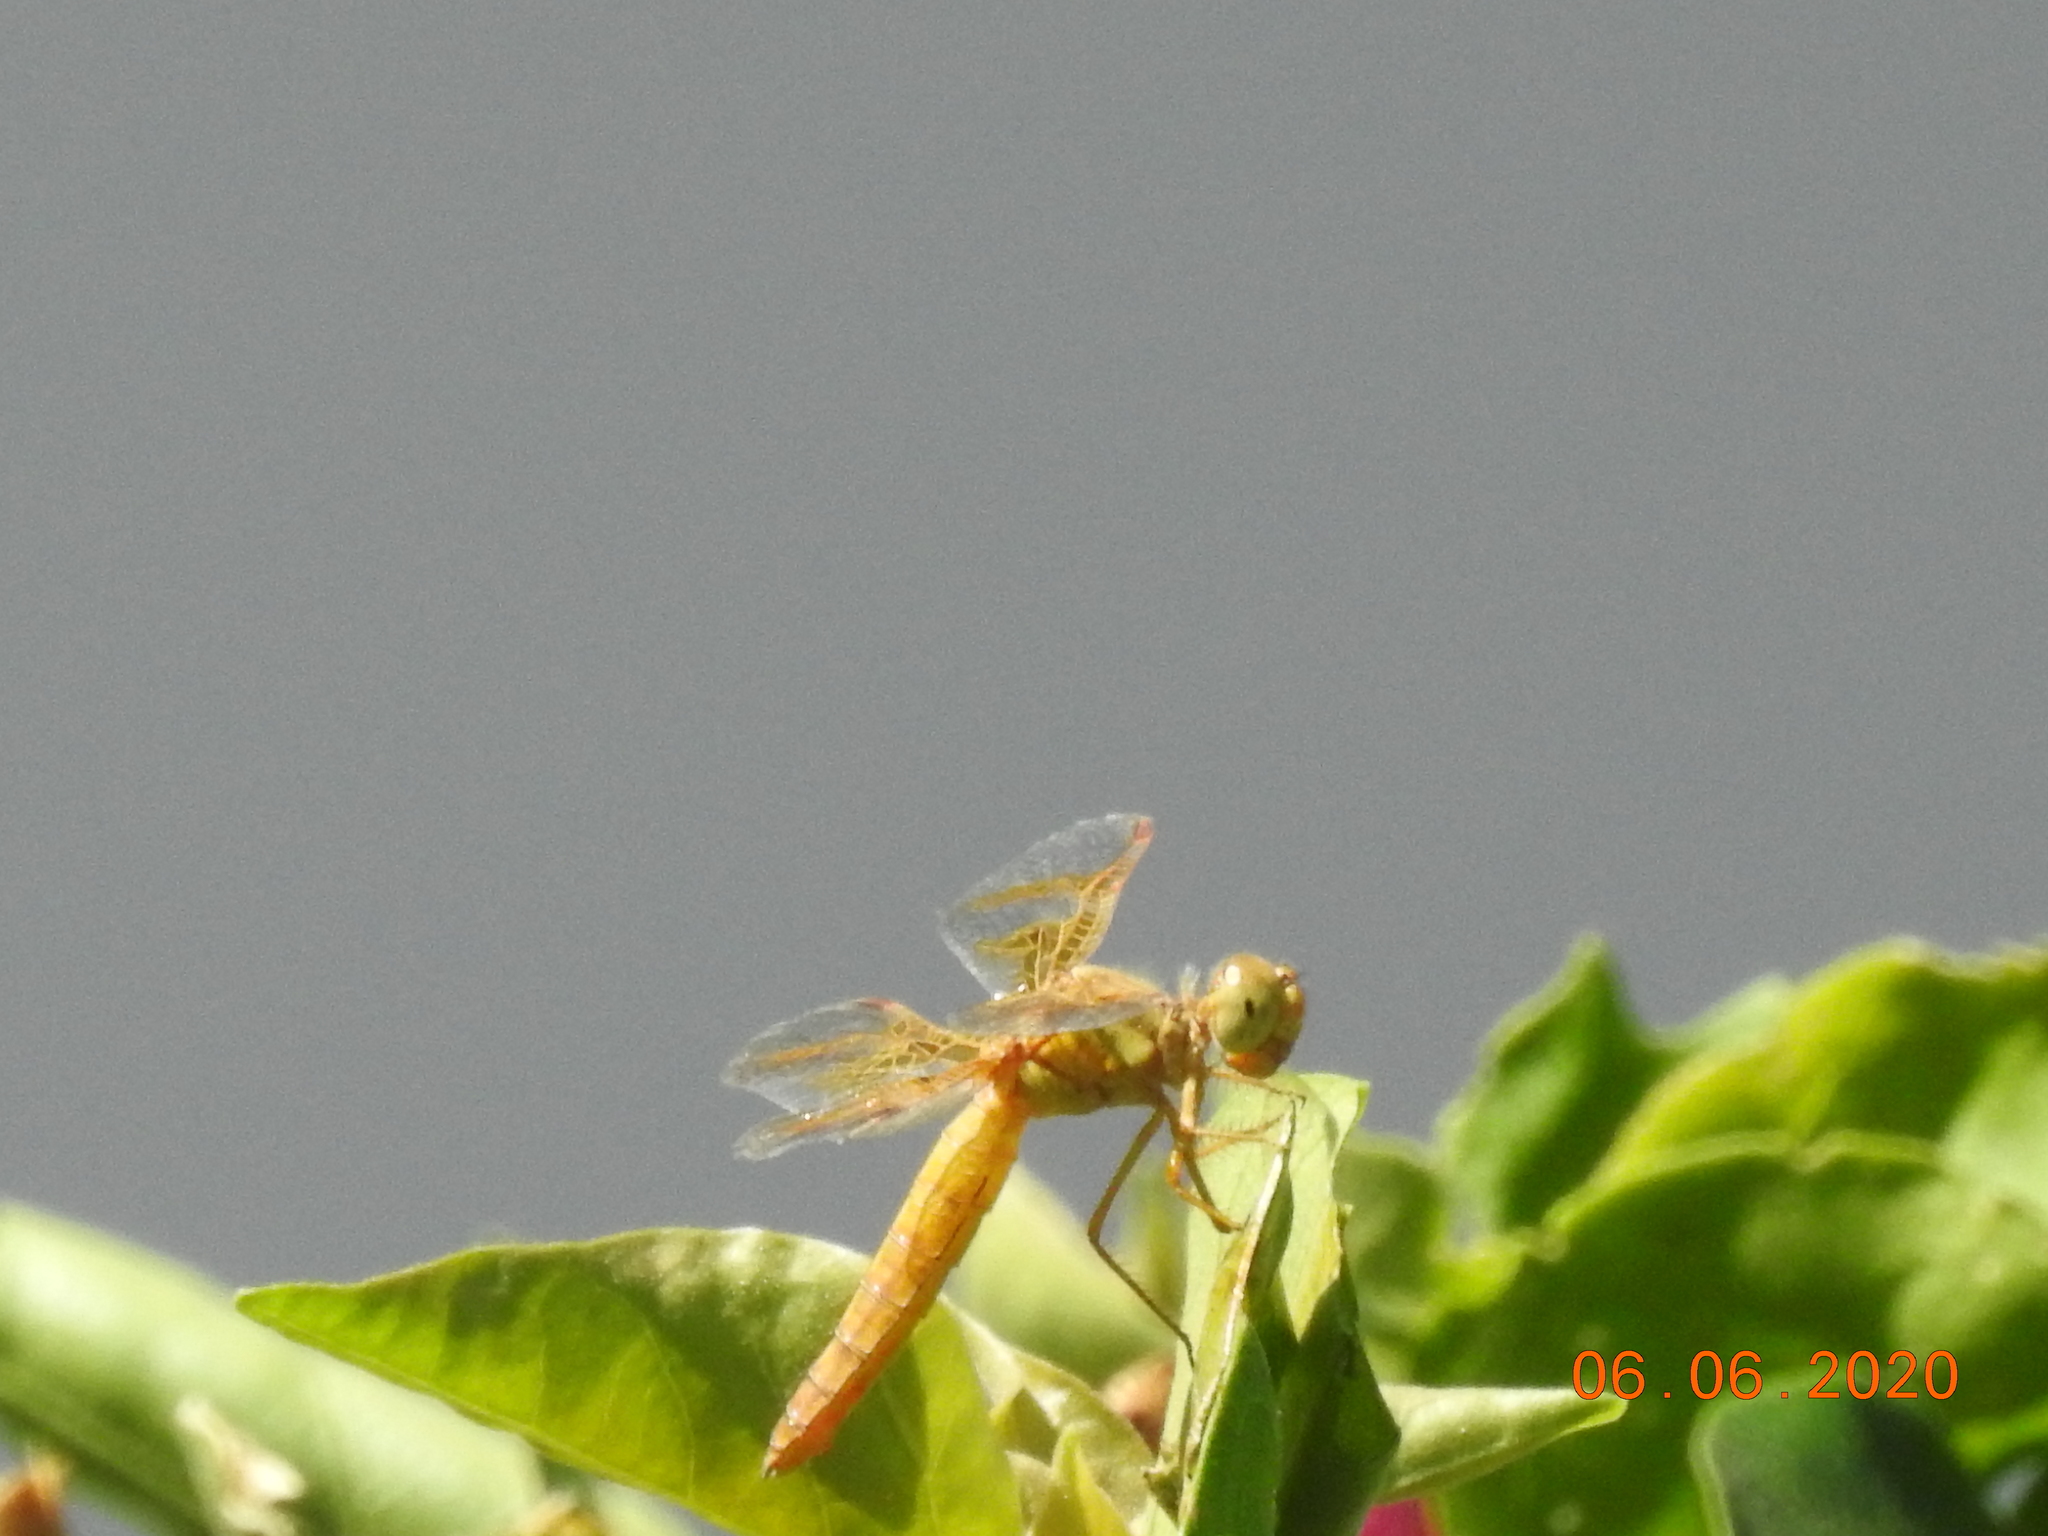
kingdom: Animalia
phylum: Arthropoda
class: Insecta
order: Odonata
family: Libellulidae
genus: Perithemis
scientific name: Perithemis intensa
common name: Mexican amberwing
